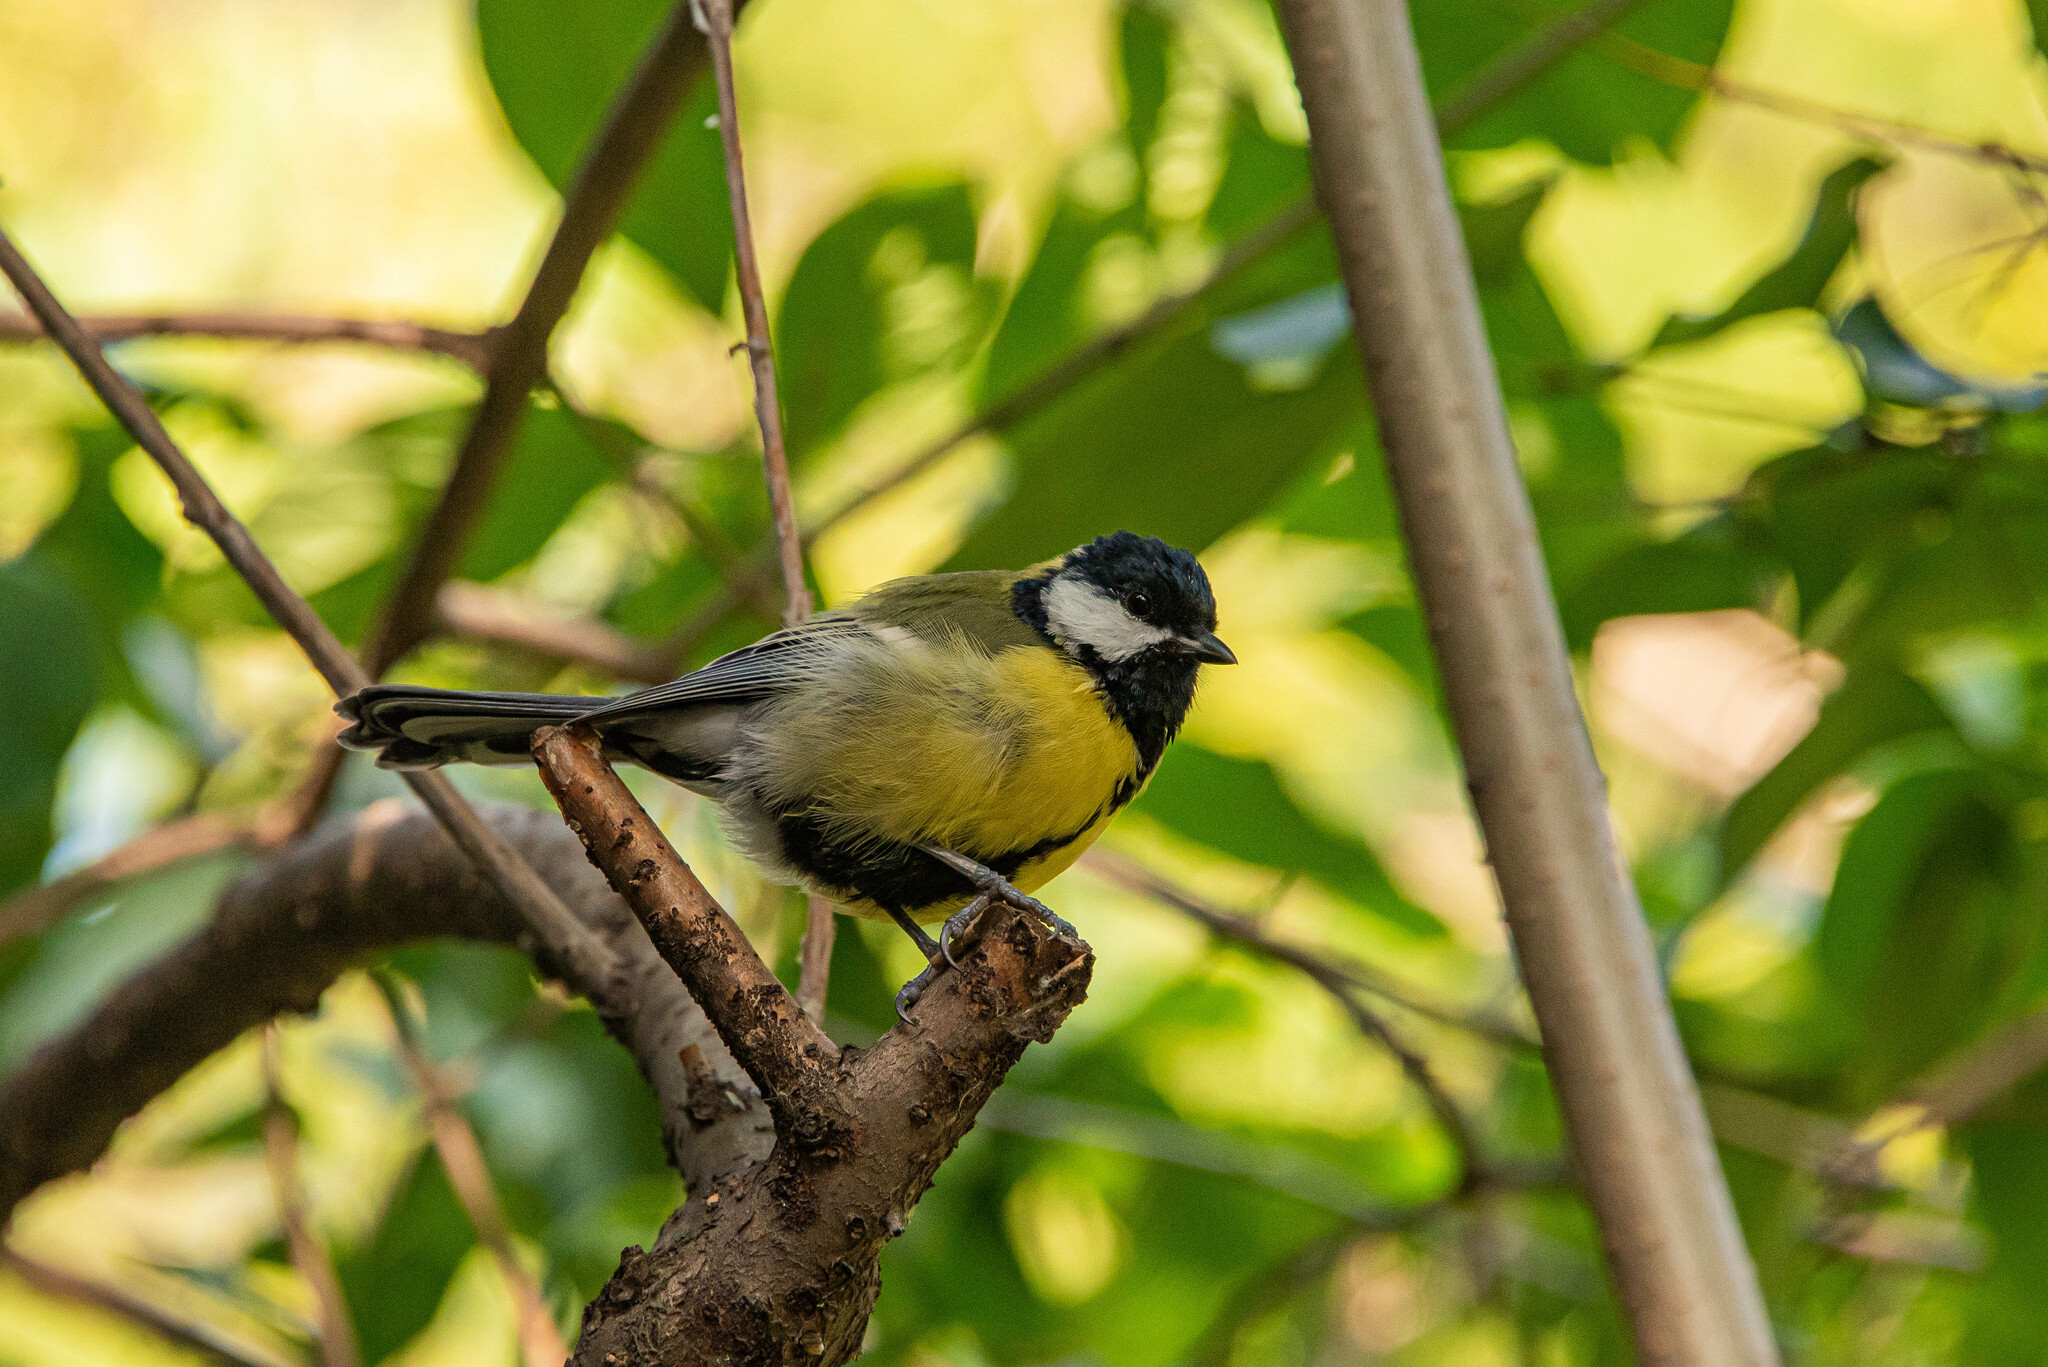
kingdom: Animalia
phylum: Chordata
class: Aves
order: Passeriformes
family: Paridae
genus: Parus
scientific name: Parus major
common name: Great tit
